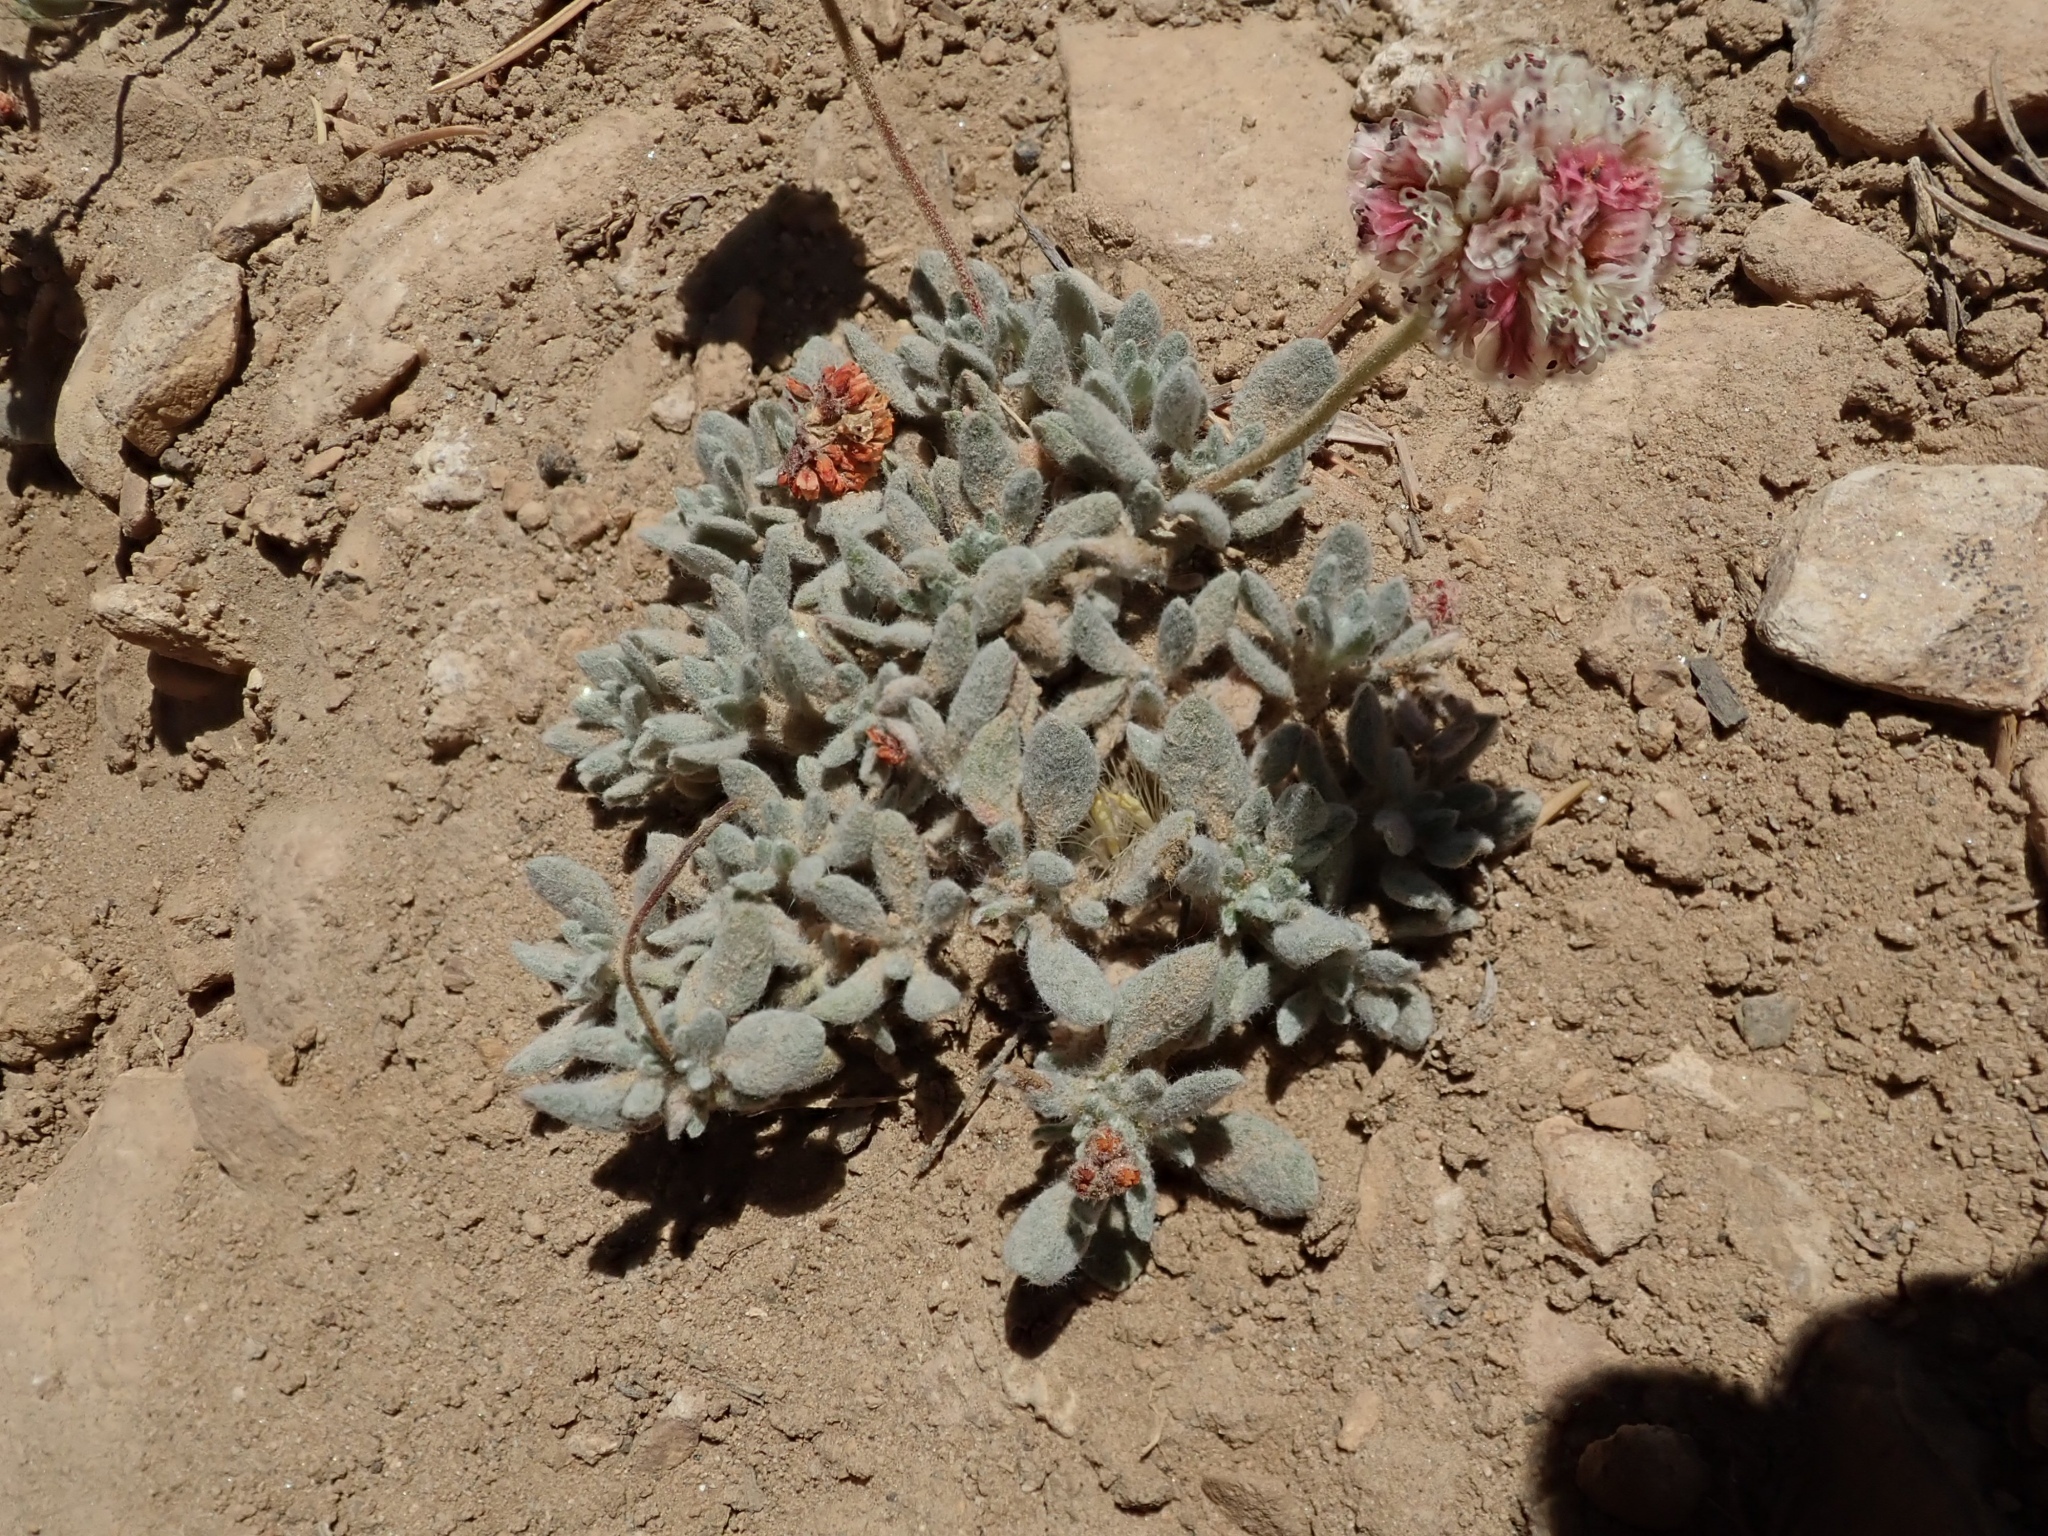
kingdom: Plantae
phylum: Tracheophyta
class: Magnoliopsida
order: Caryophyllales
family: Polygonaceae
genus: Eriogonum
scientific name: Eriogonum gracilipes
